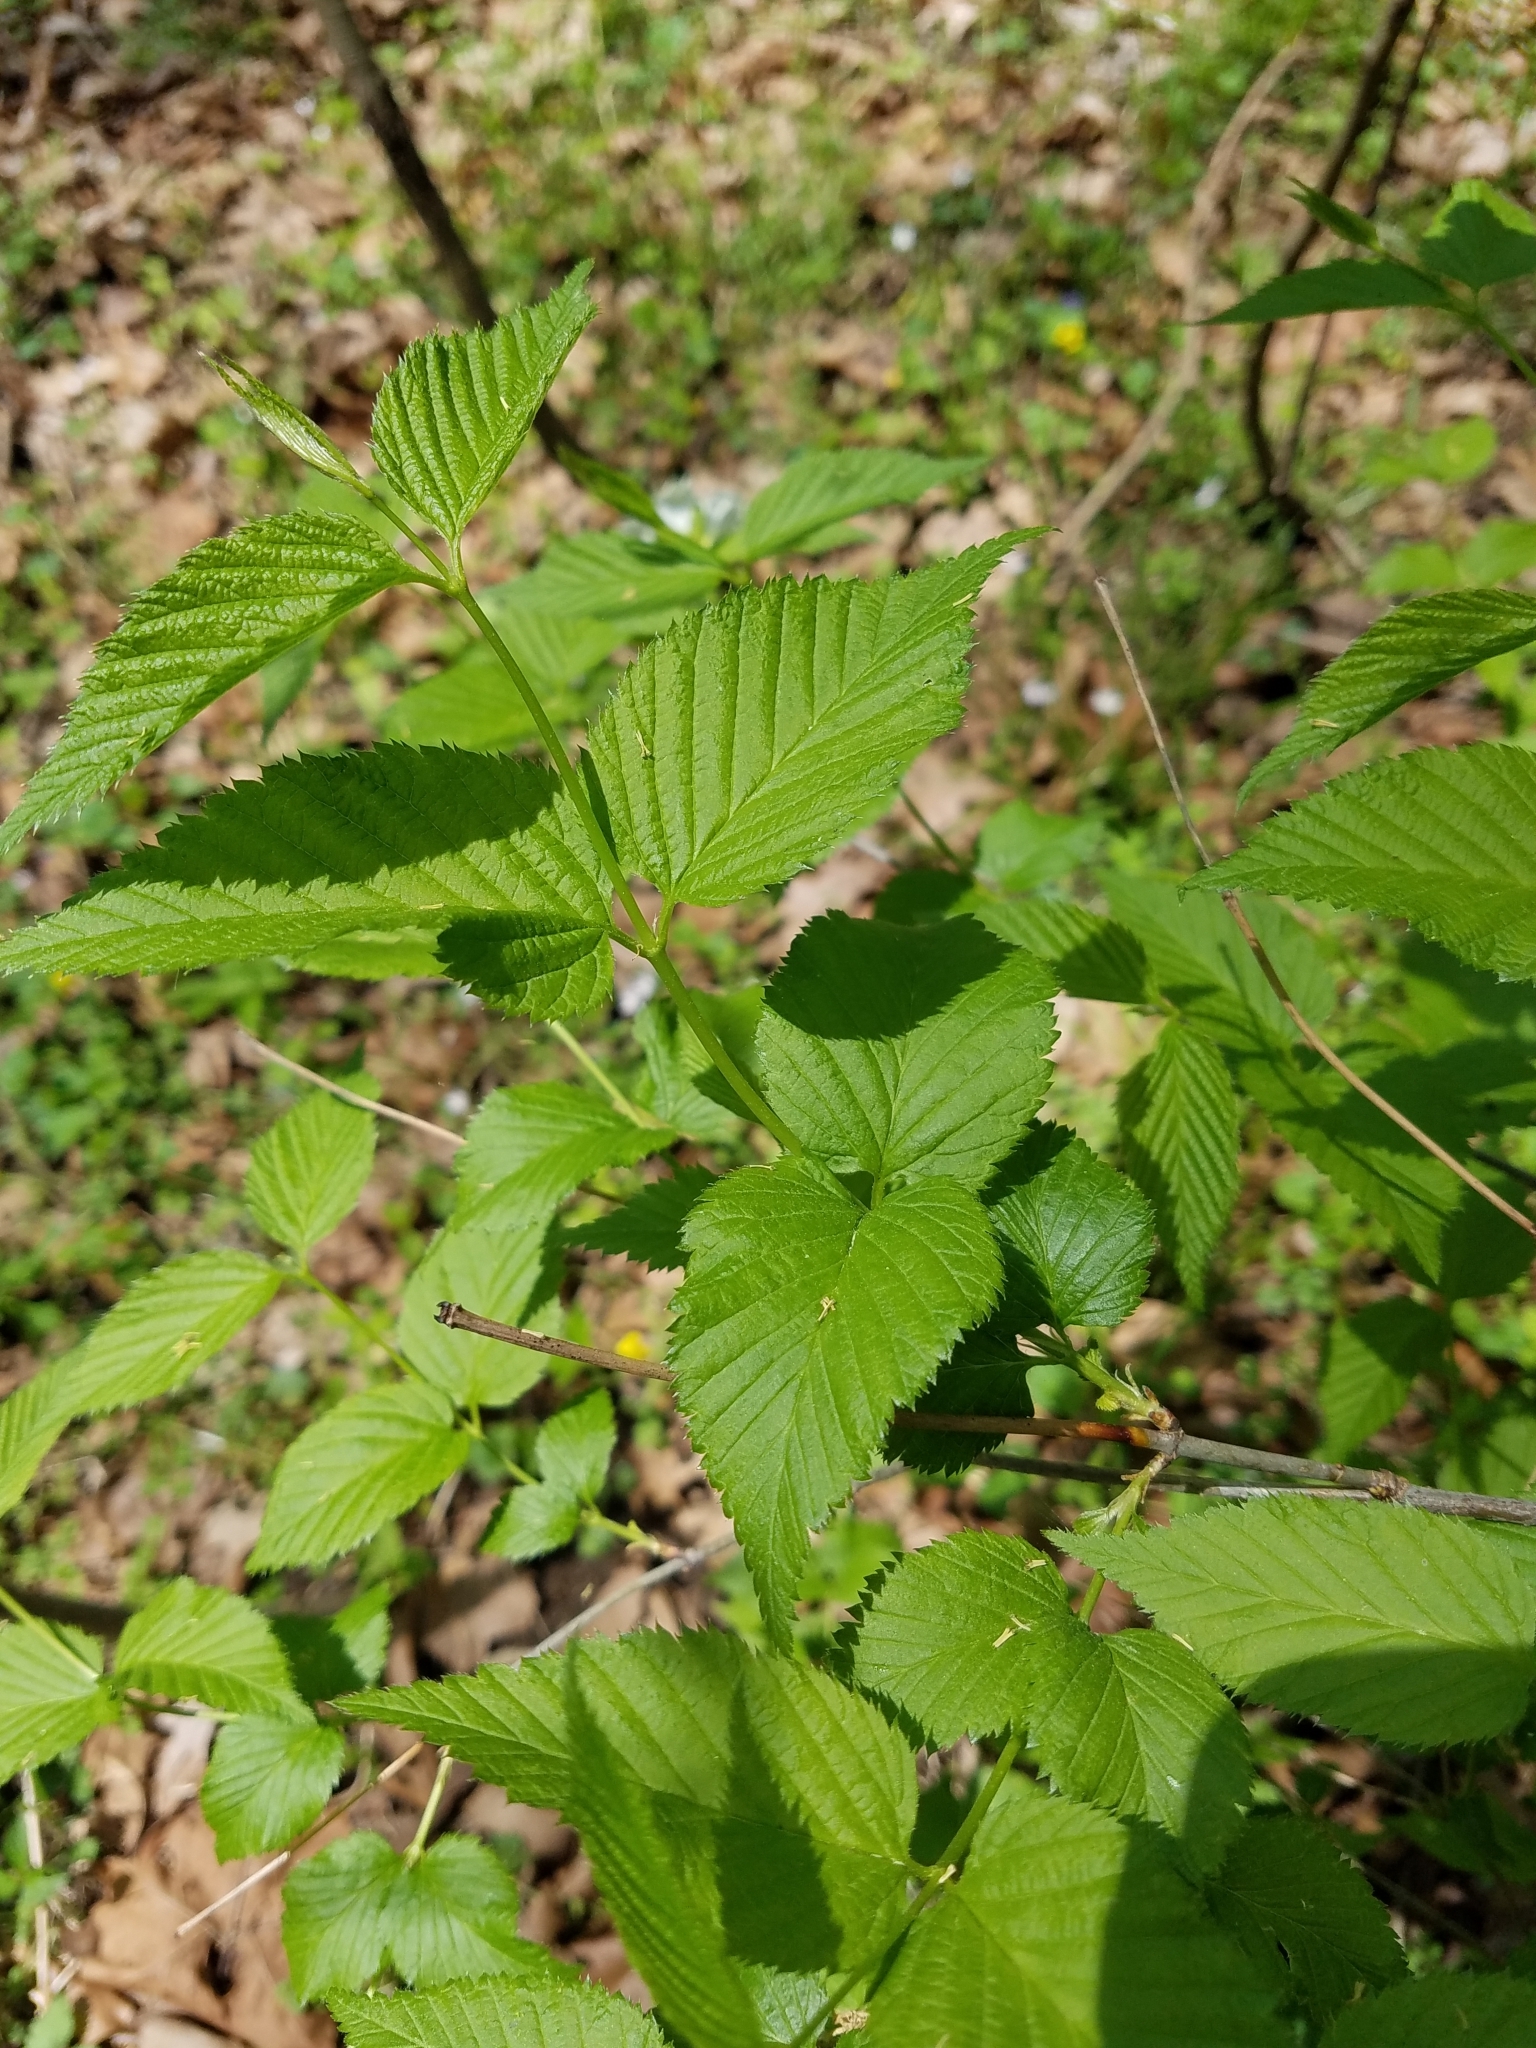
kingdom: Plantae
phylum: Tracheophyta
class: Magnoliopsida
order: Rosales
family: Rosaceae
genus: Rhodotypos
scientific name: Rhodotypos scandens
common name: Jetbead
